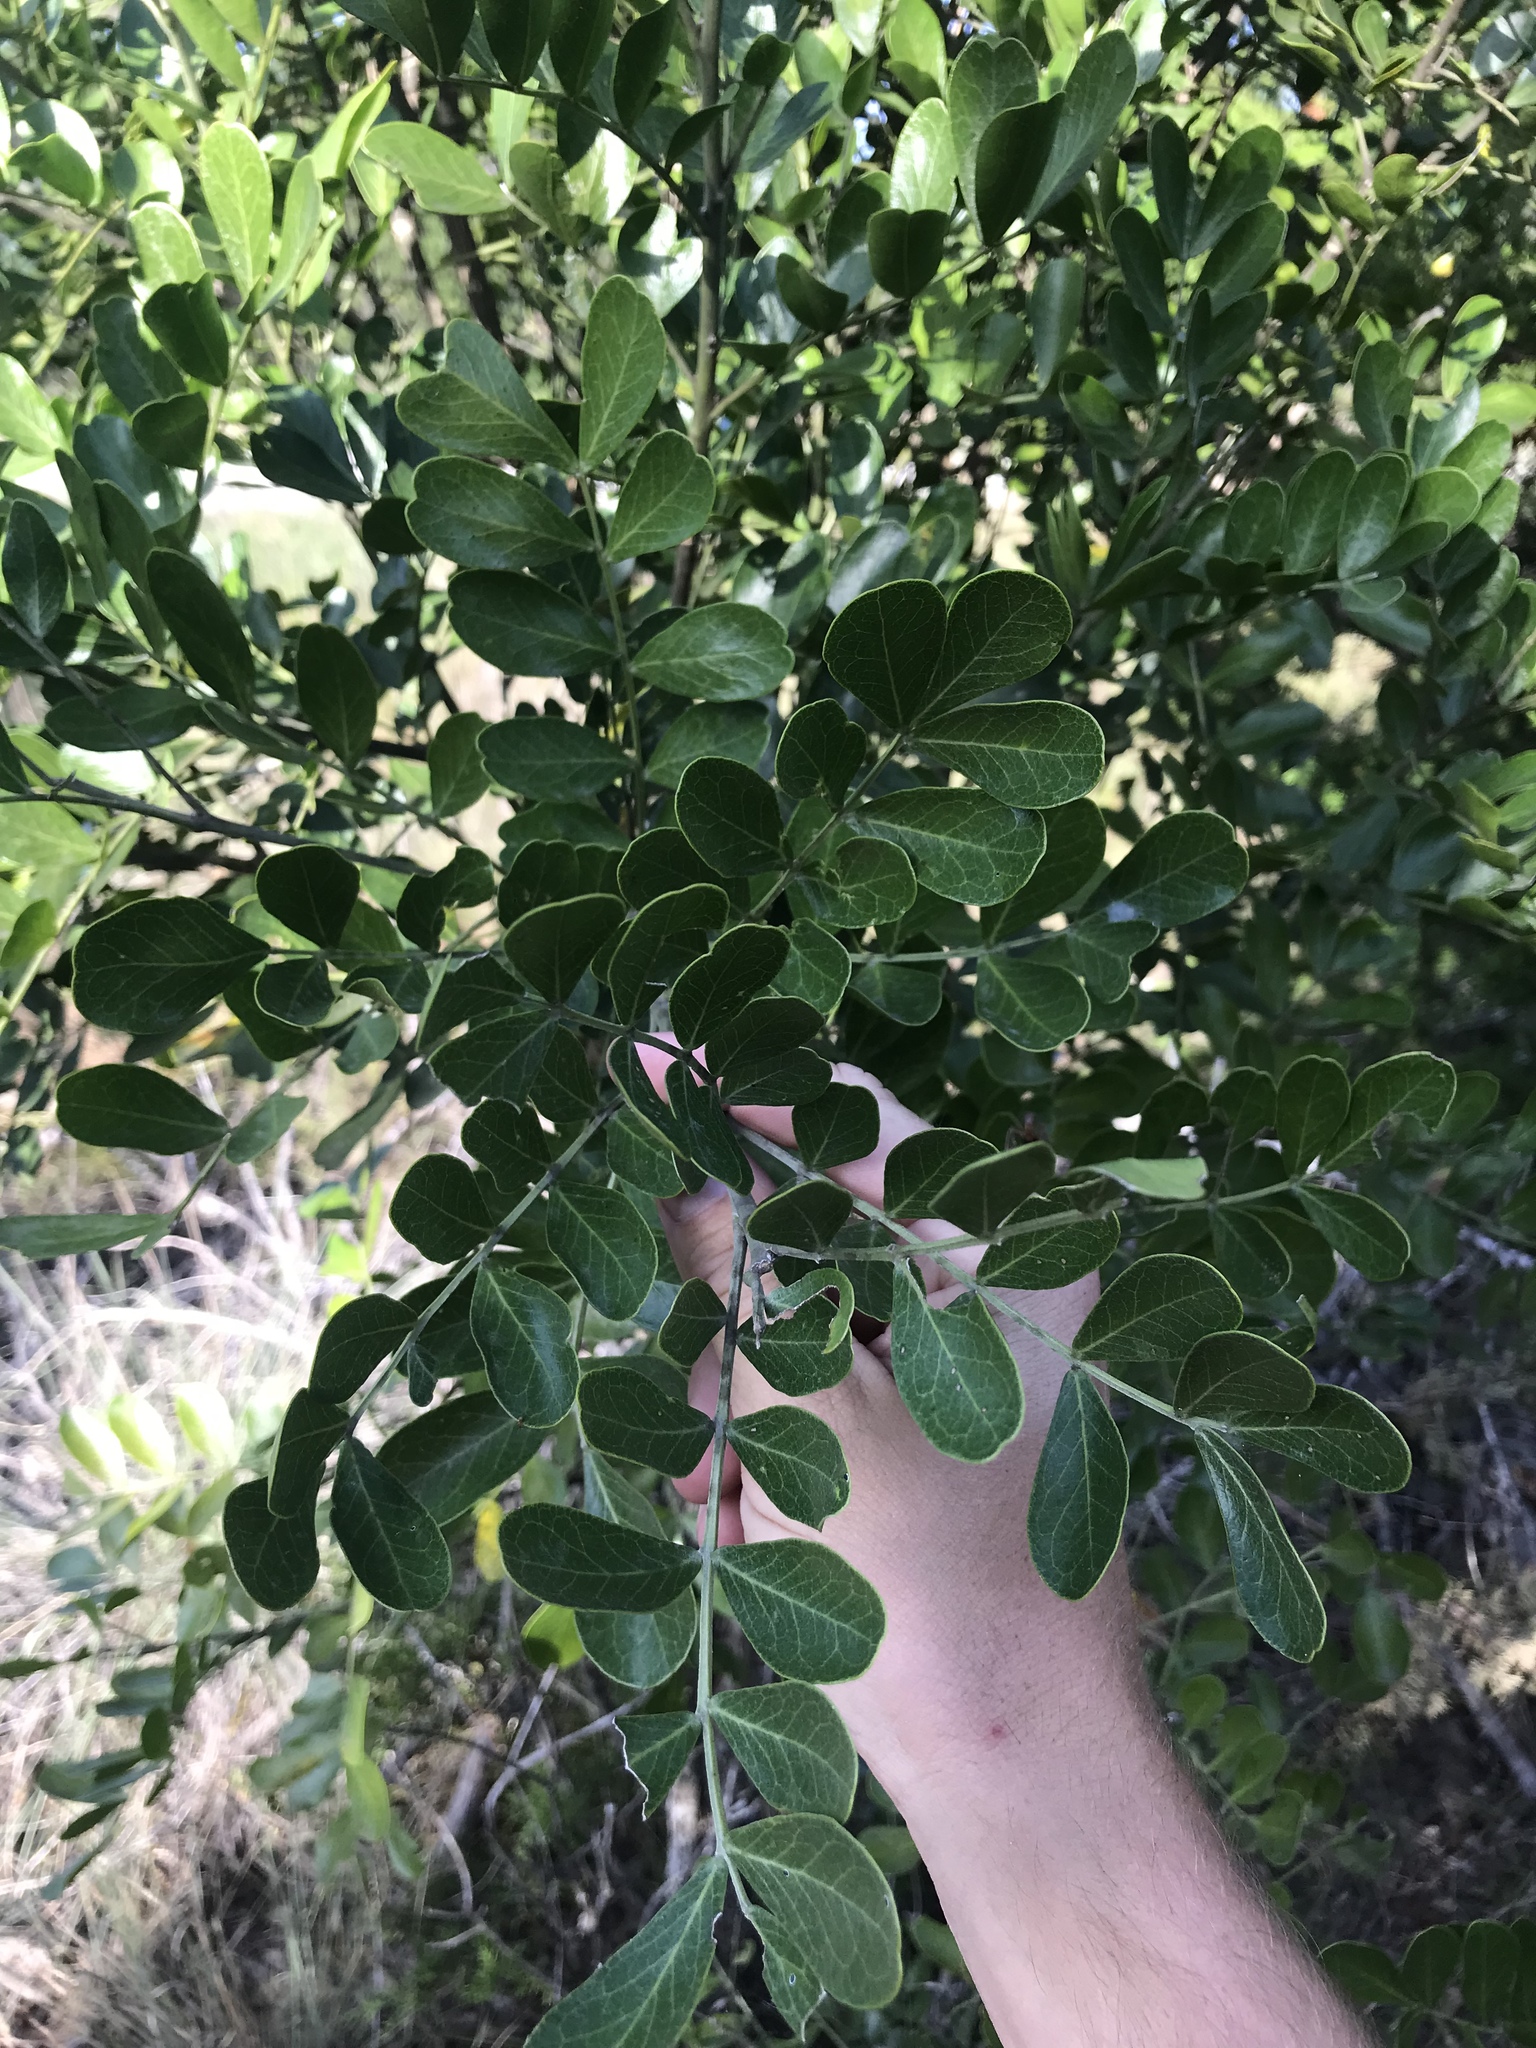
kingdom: Plantae
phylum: Tracheophyta
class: Magnoliopsida
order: Fabales
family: Fabaceae
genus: Dermatophyllum
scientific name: Dermatophyllum secundiflorum
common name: Texas-mountain-laurel
